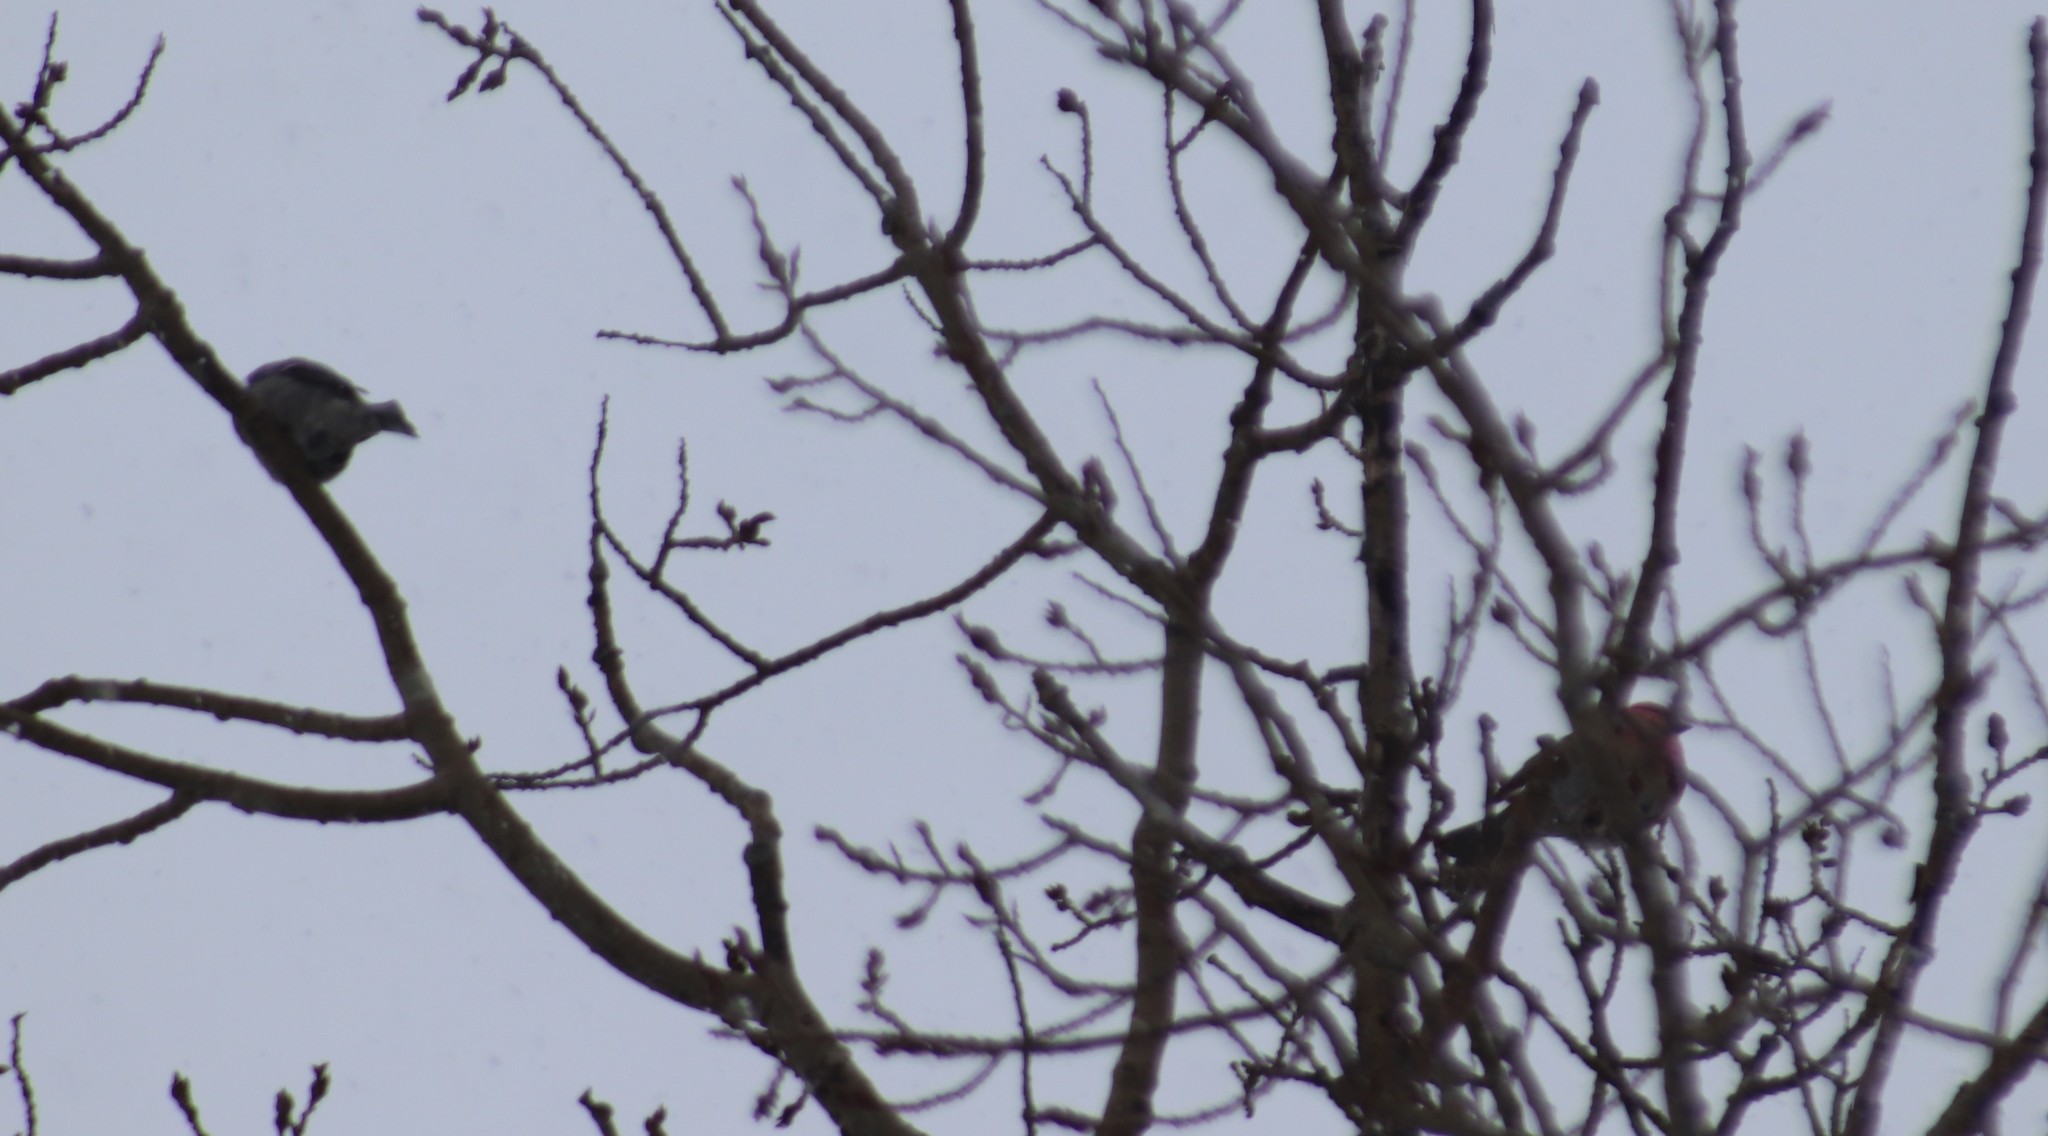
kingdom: Animalia
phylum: Chordata
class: Aves
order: Passeriformes
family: Fringillidae
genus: Pinicola
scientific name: Pinicola enucleator
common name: Pine grosbeak
